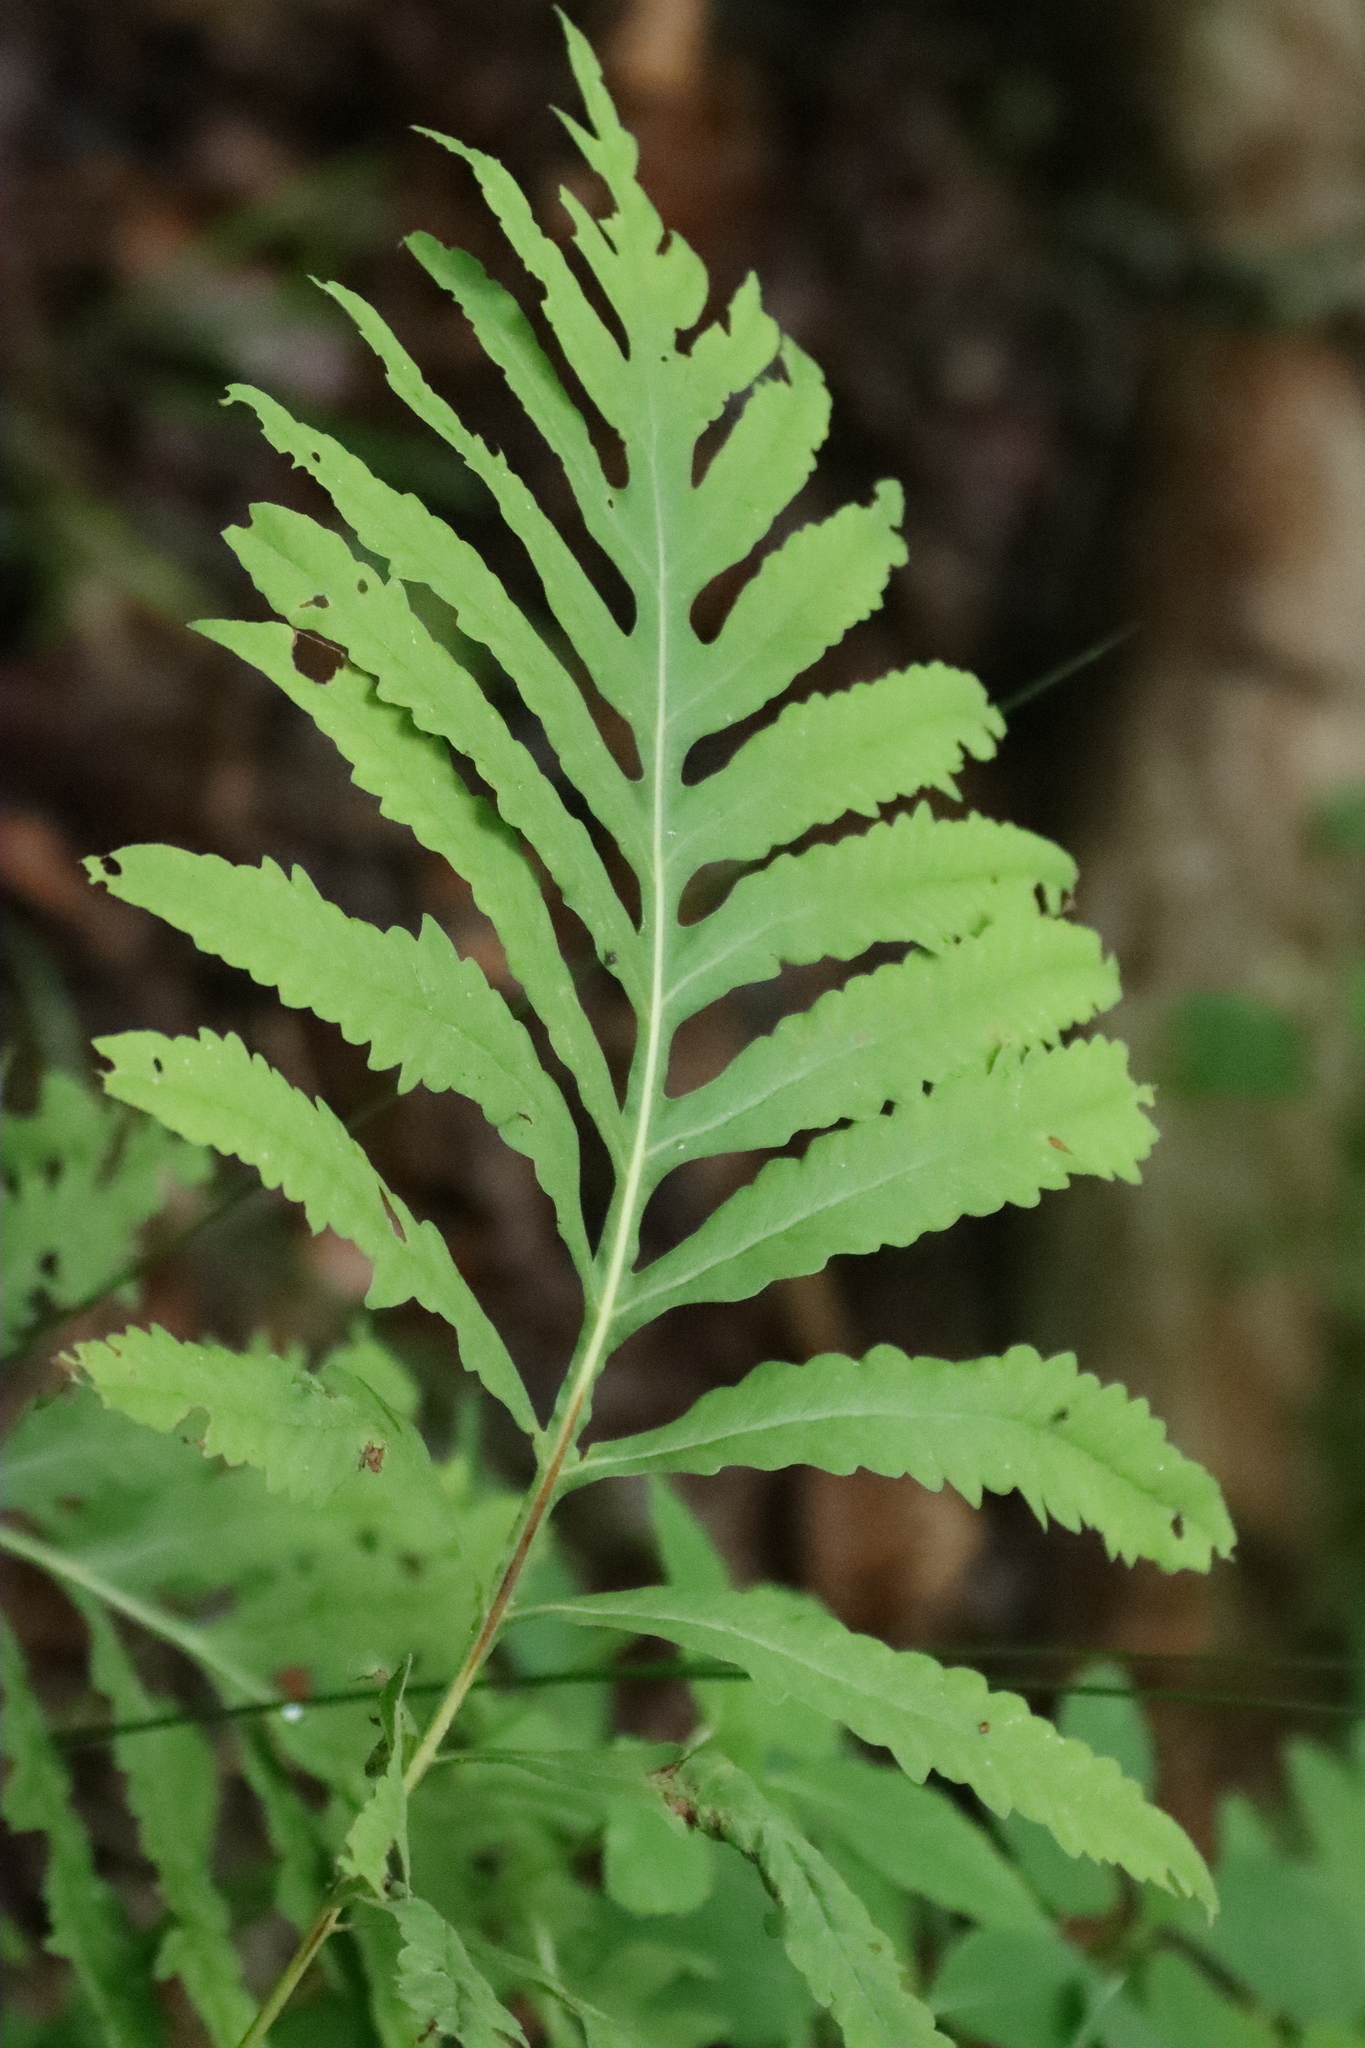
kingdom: Plantae
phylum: Tracheophyta
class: Polypodiopsida
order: Polypodiales
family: Onocleaceae
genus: Onoclea
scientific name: Onoclea sensibilis
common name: Sensitive fern
